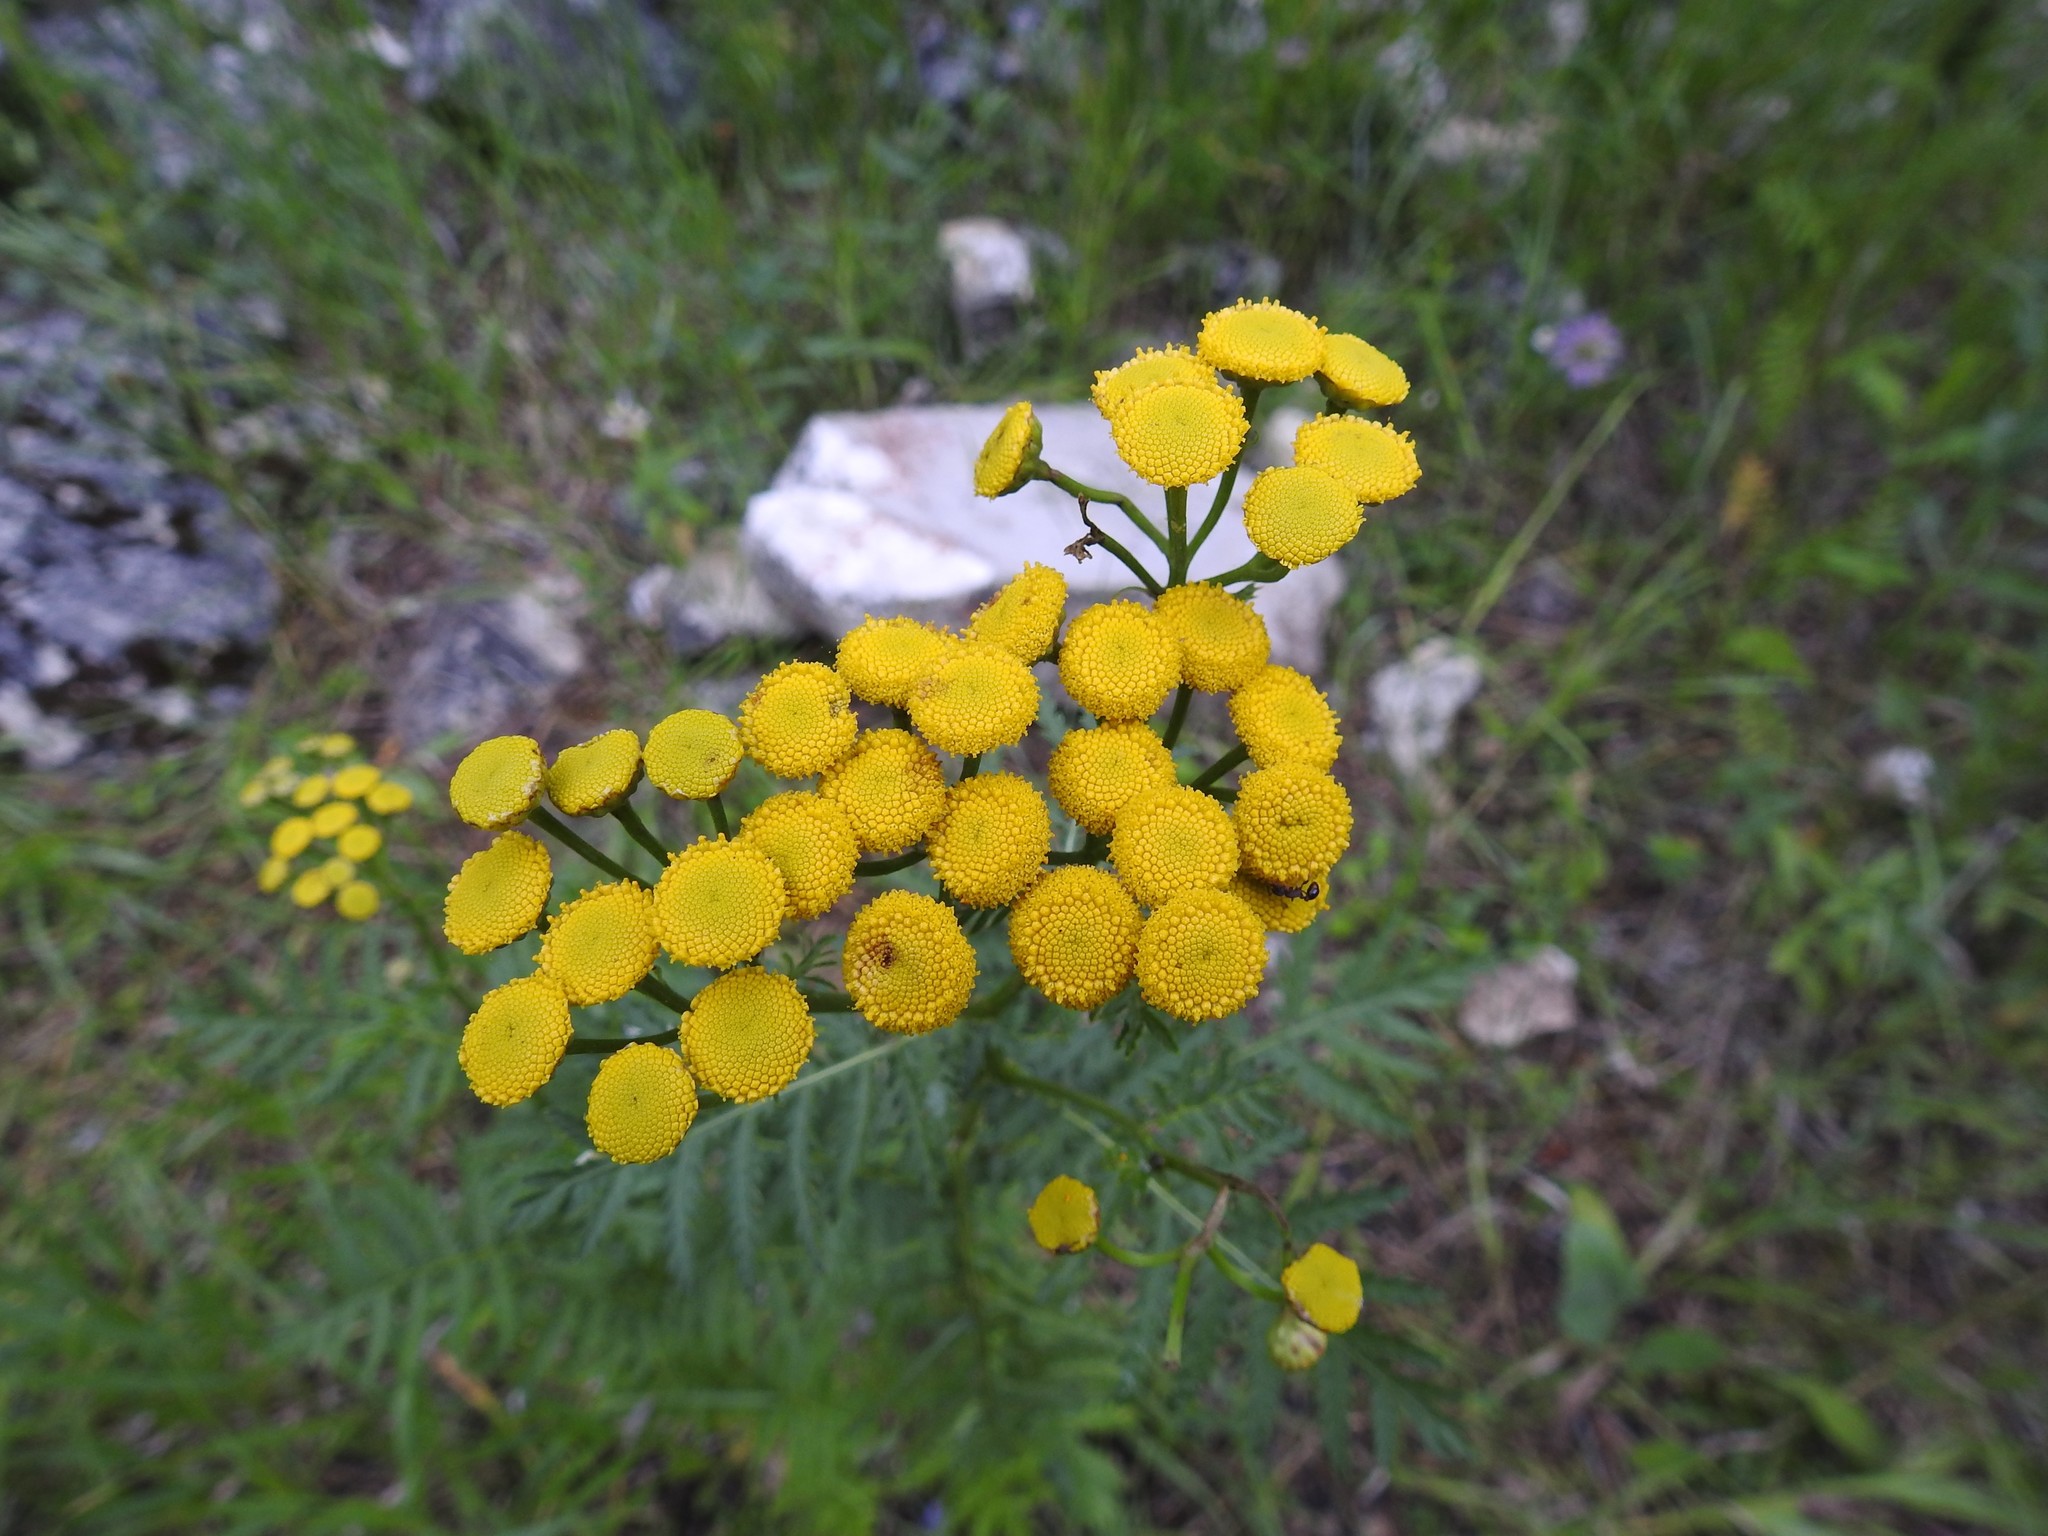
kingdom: Plantae
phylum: Tracheophyta
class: Magnoliopsida
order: Asterales
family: Asteraceae
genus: Tanacetum
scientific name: Tanacetum vulgare
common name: Common tansy
